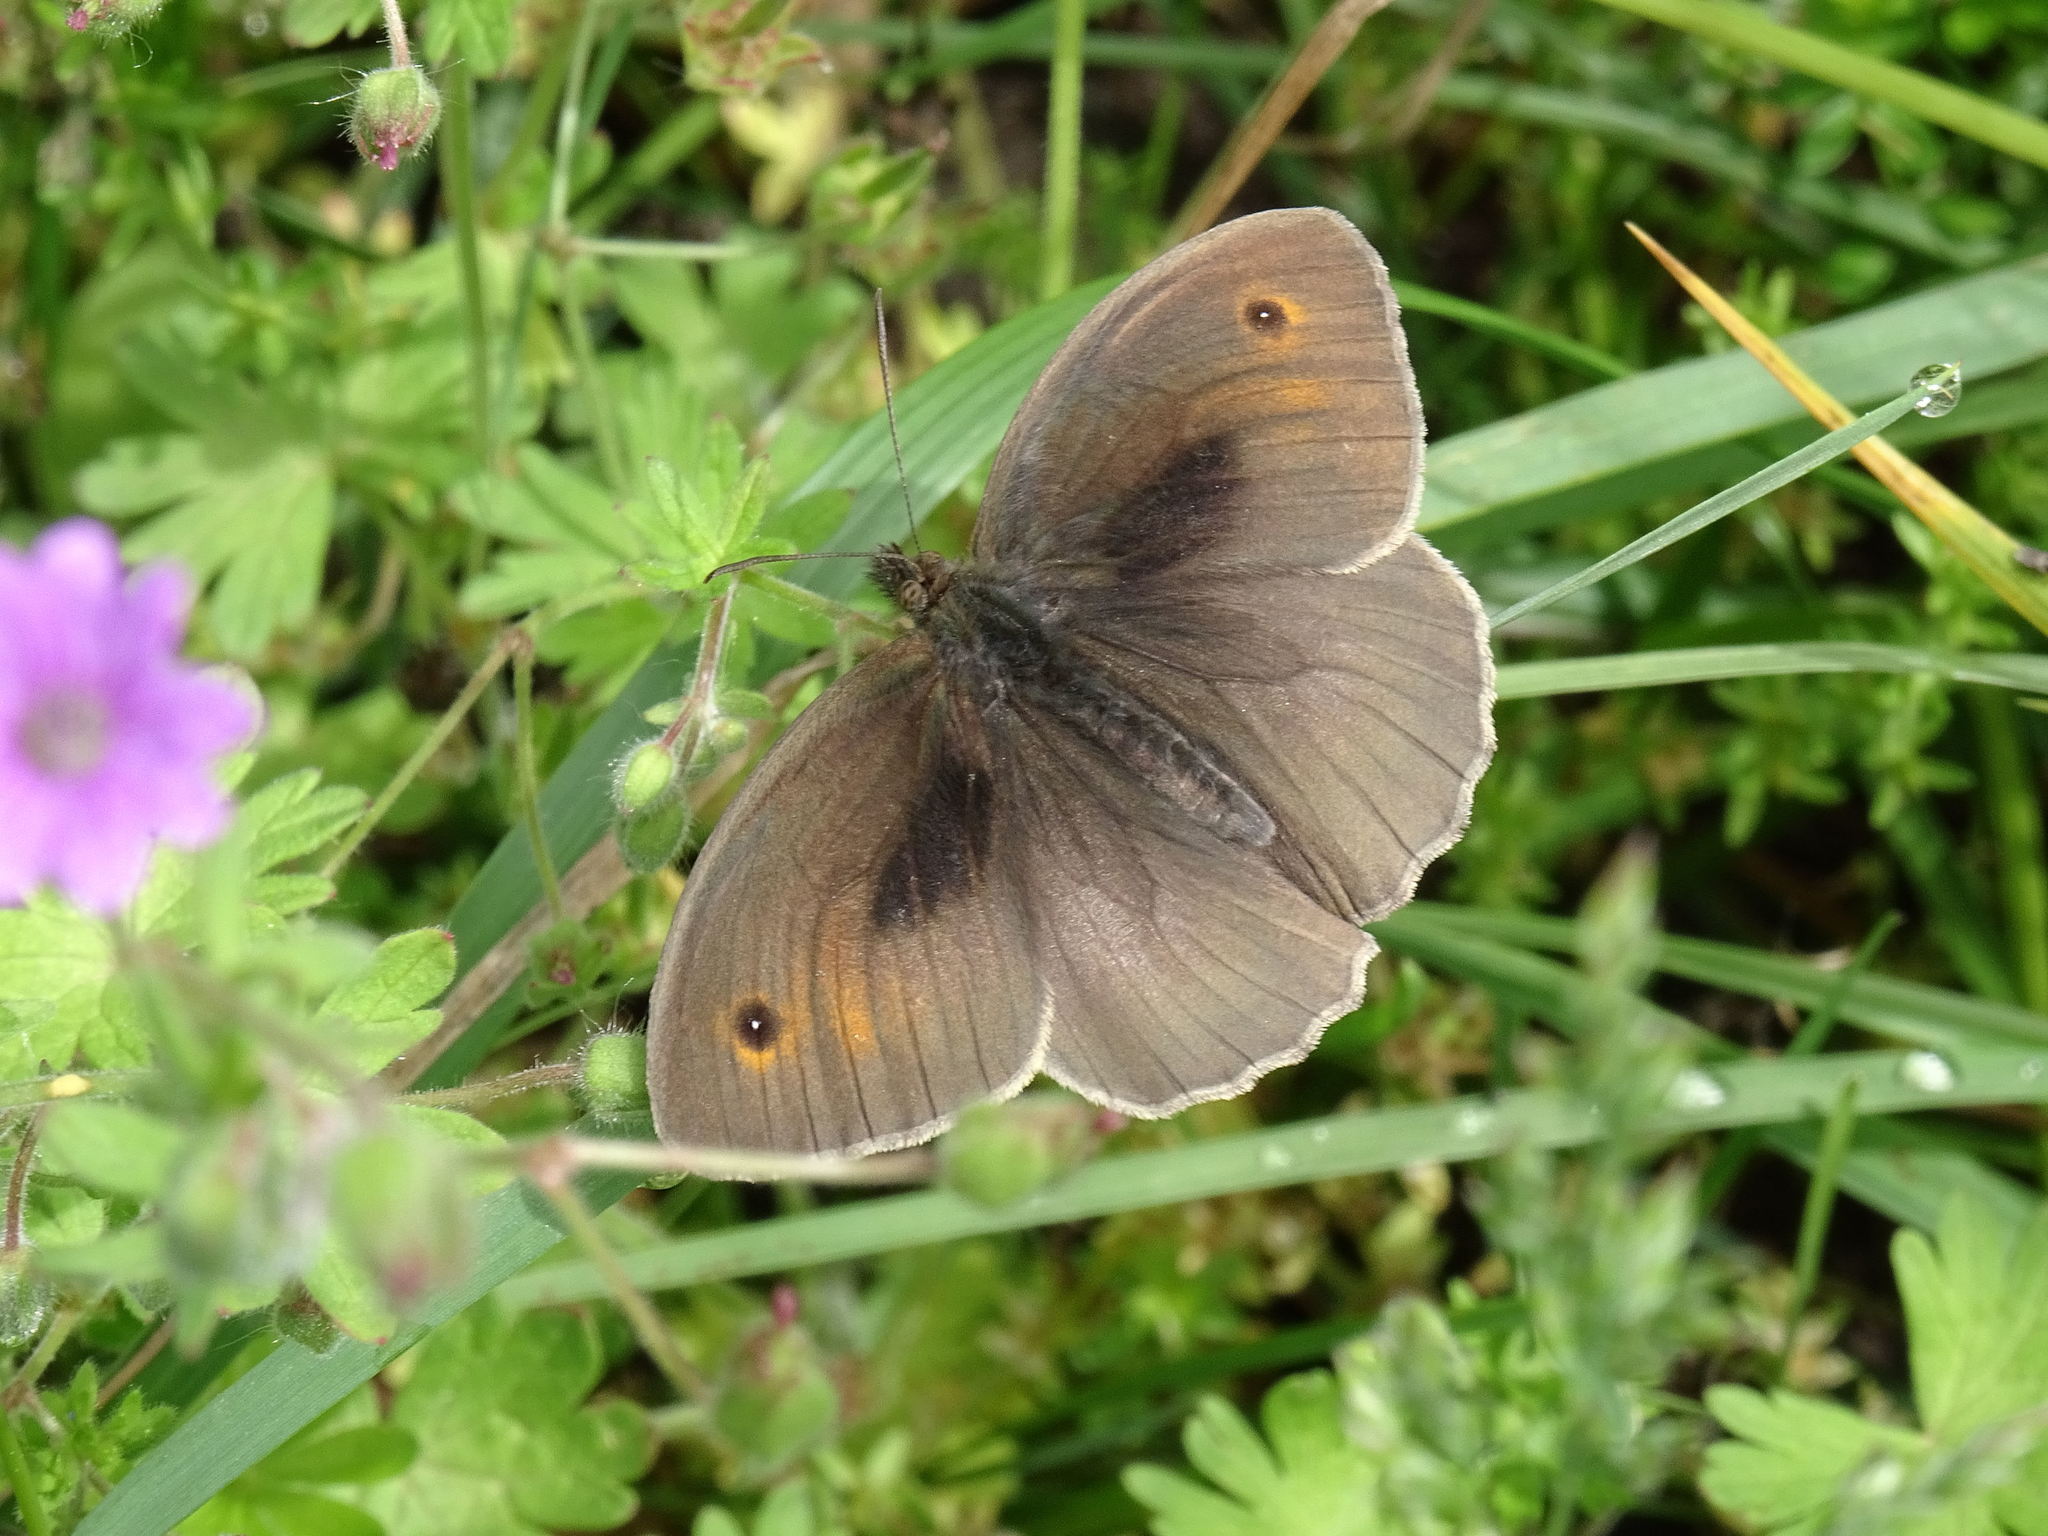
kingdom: Animalia
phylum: Arthropoda
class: Insecta
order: Lepidoptera
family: Nymphalidae
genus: Maniola
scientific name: Maniola jurtina
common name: Meadow brown
